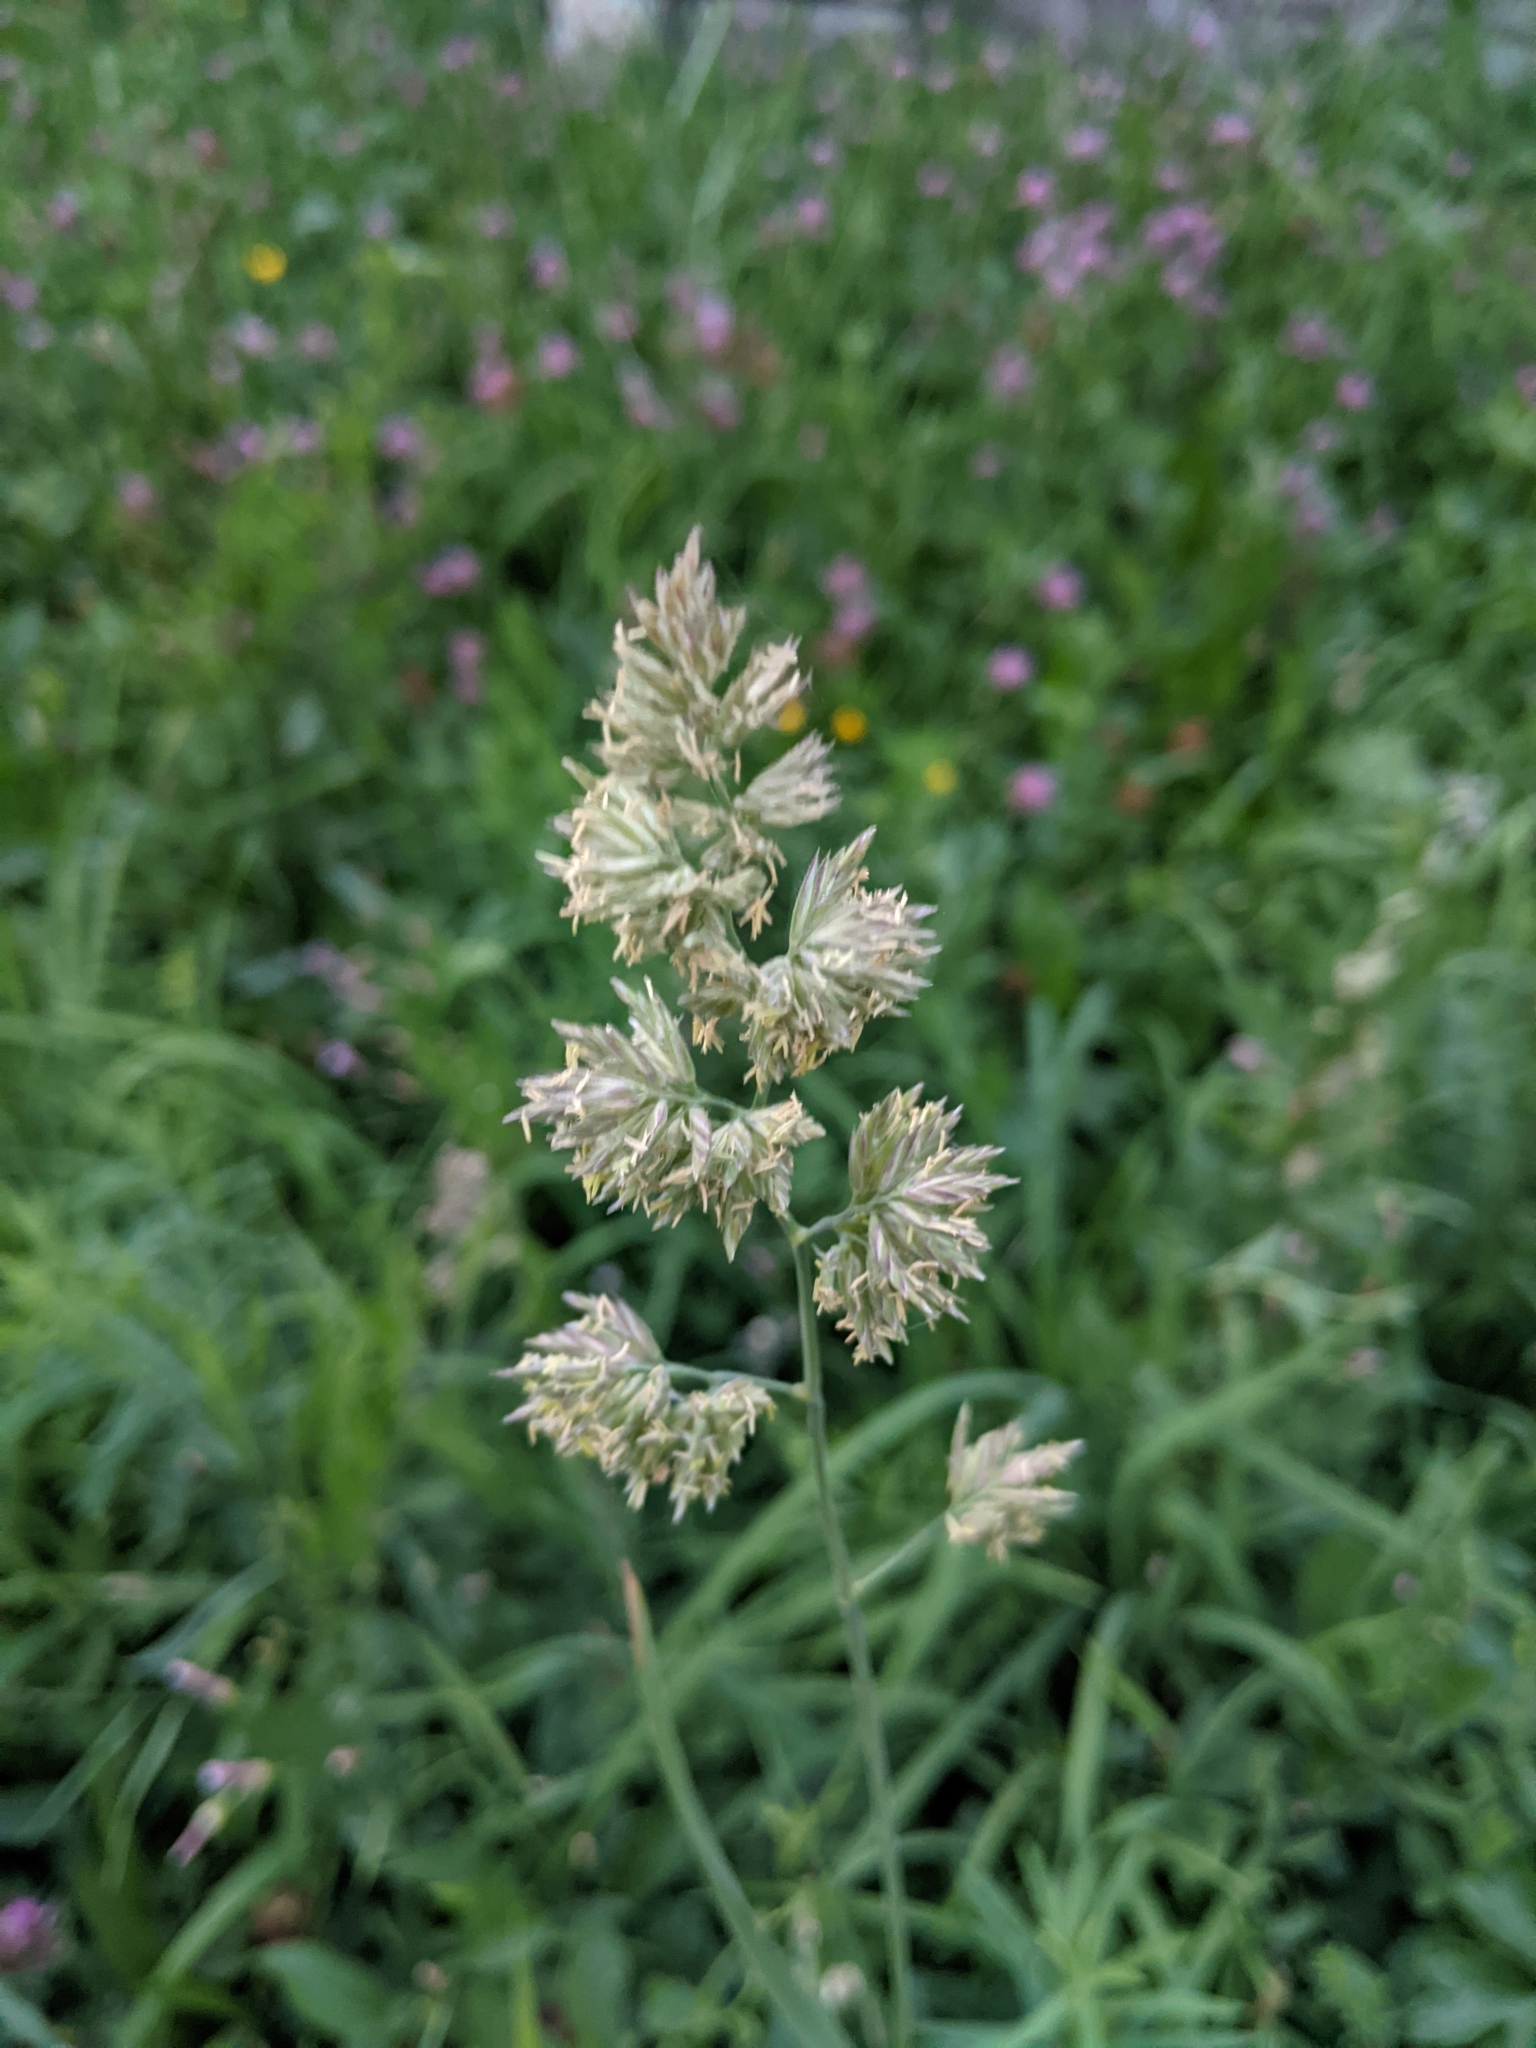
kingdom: Plantae
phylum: Tracheophyta
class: Liliopsida
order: Poales
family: Poaceae
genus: Dactylis
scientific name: Dactylis glomerata
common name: Orchardgrass
